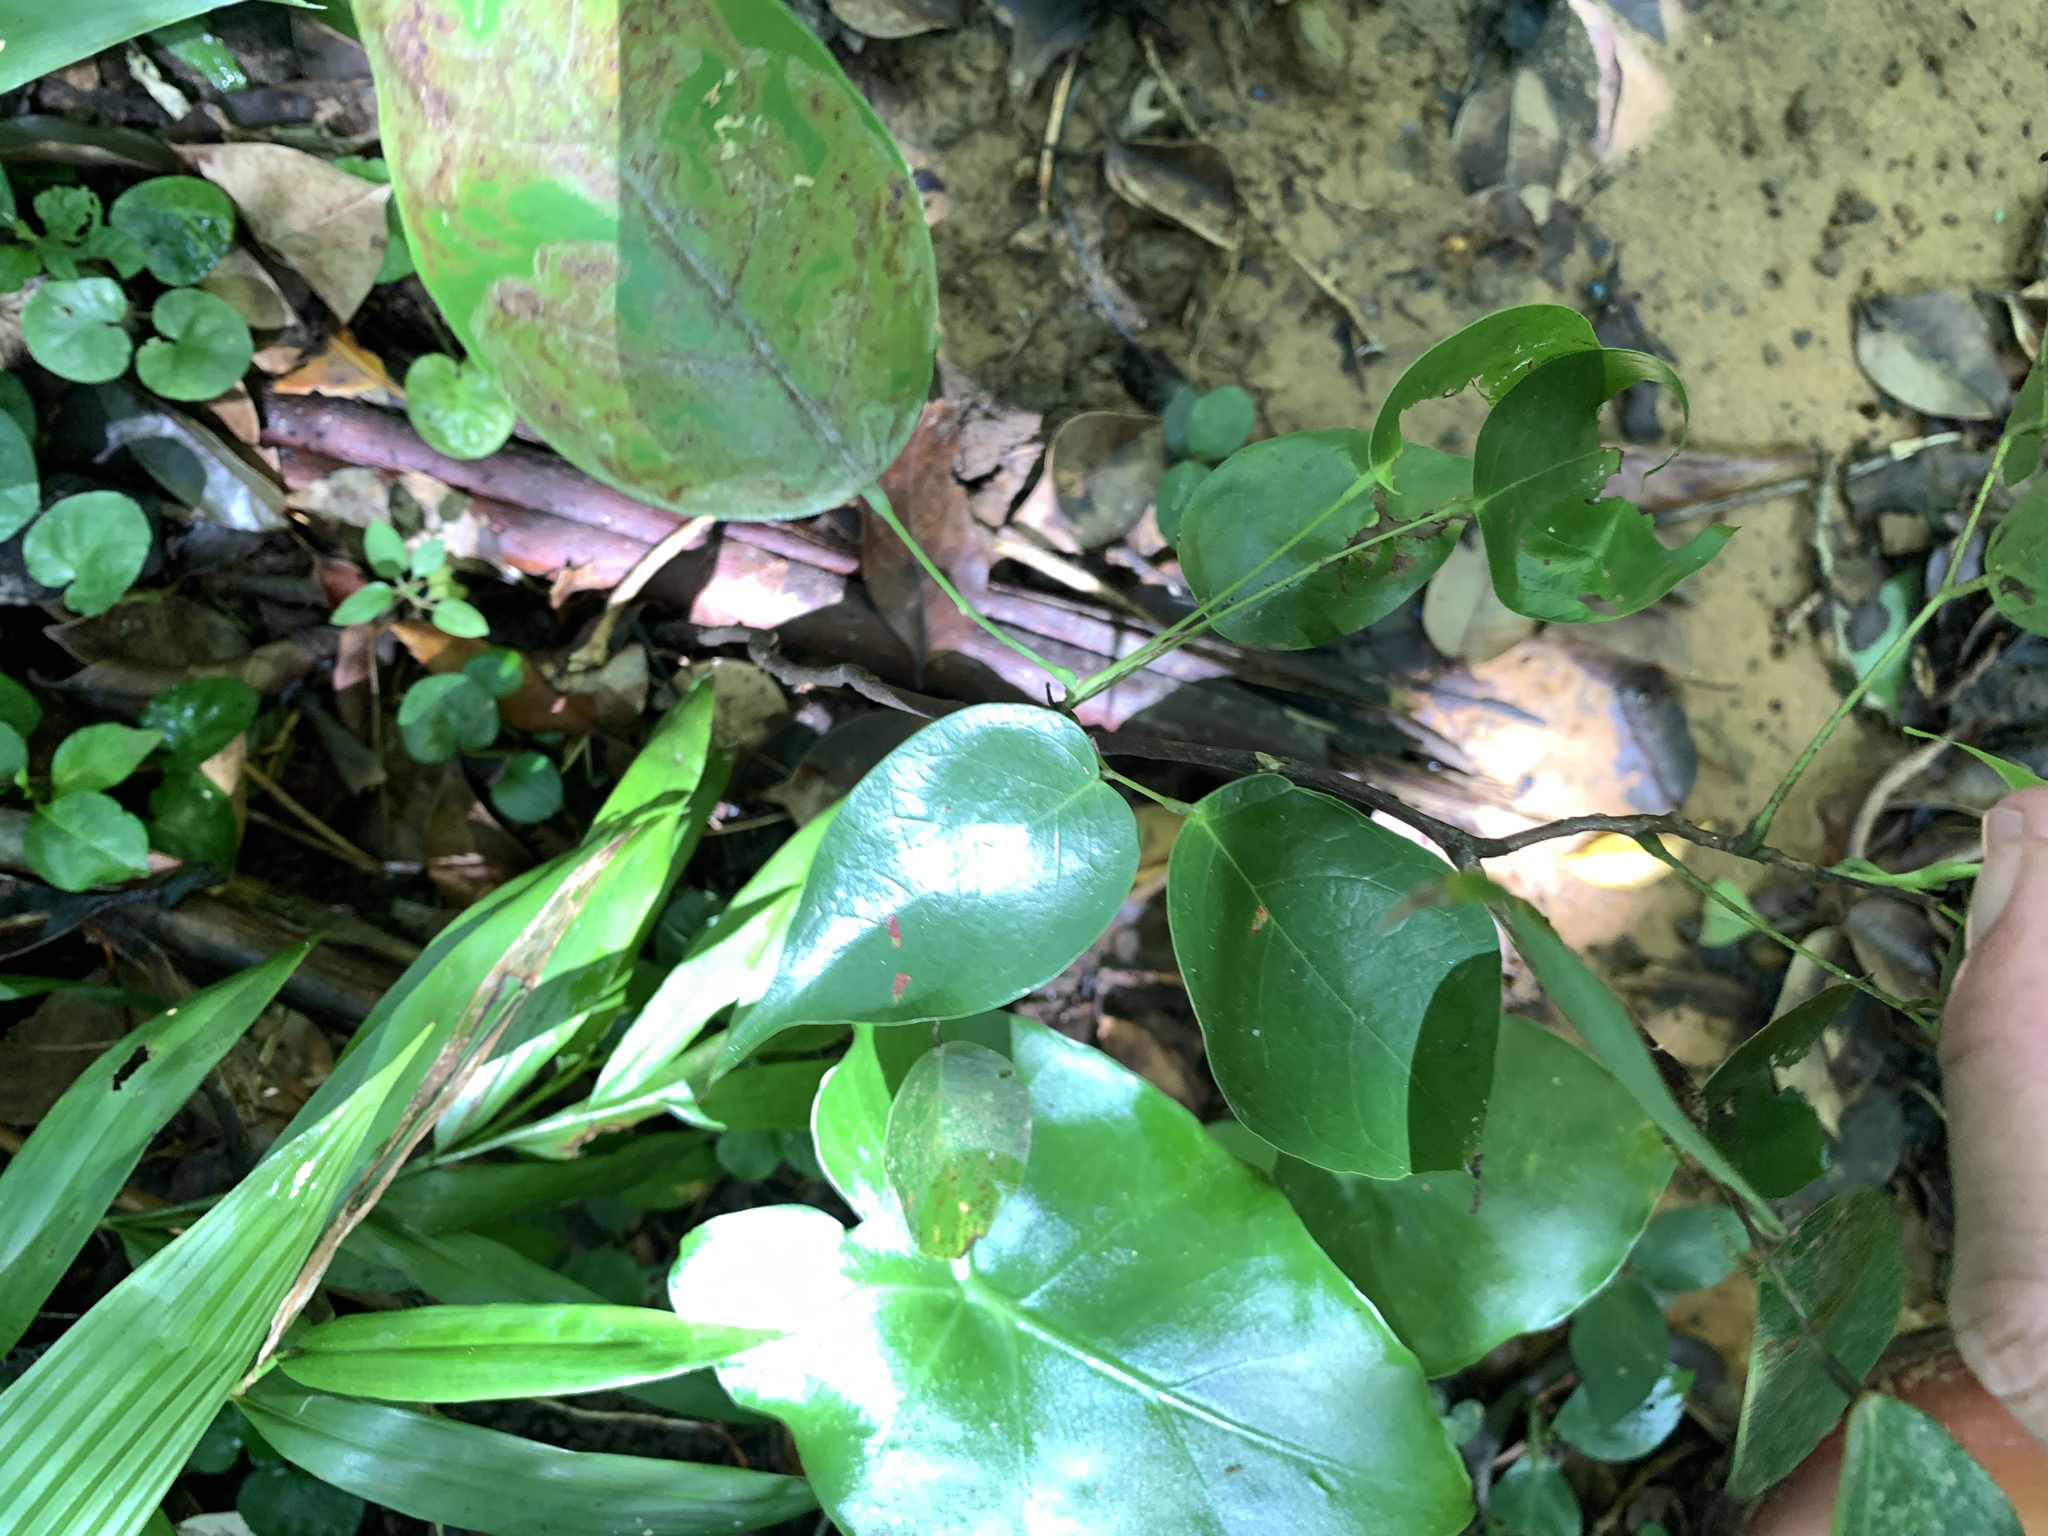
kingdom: Plantae
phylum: Tracheophyta
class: Magnoliopsida
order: Oxalidales
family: Connaraceae
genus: Rourea
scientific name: Rourea minor
